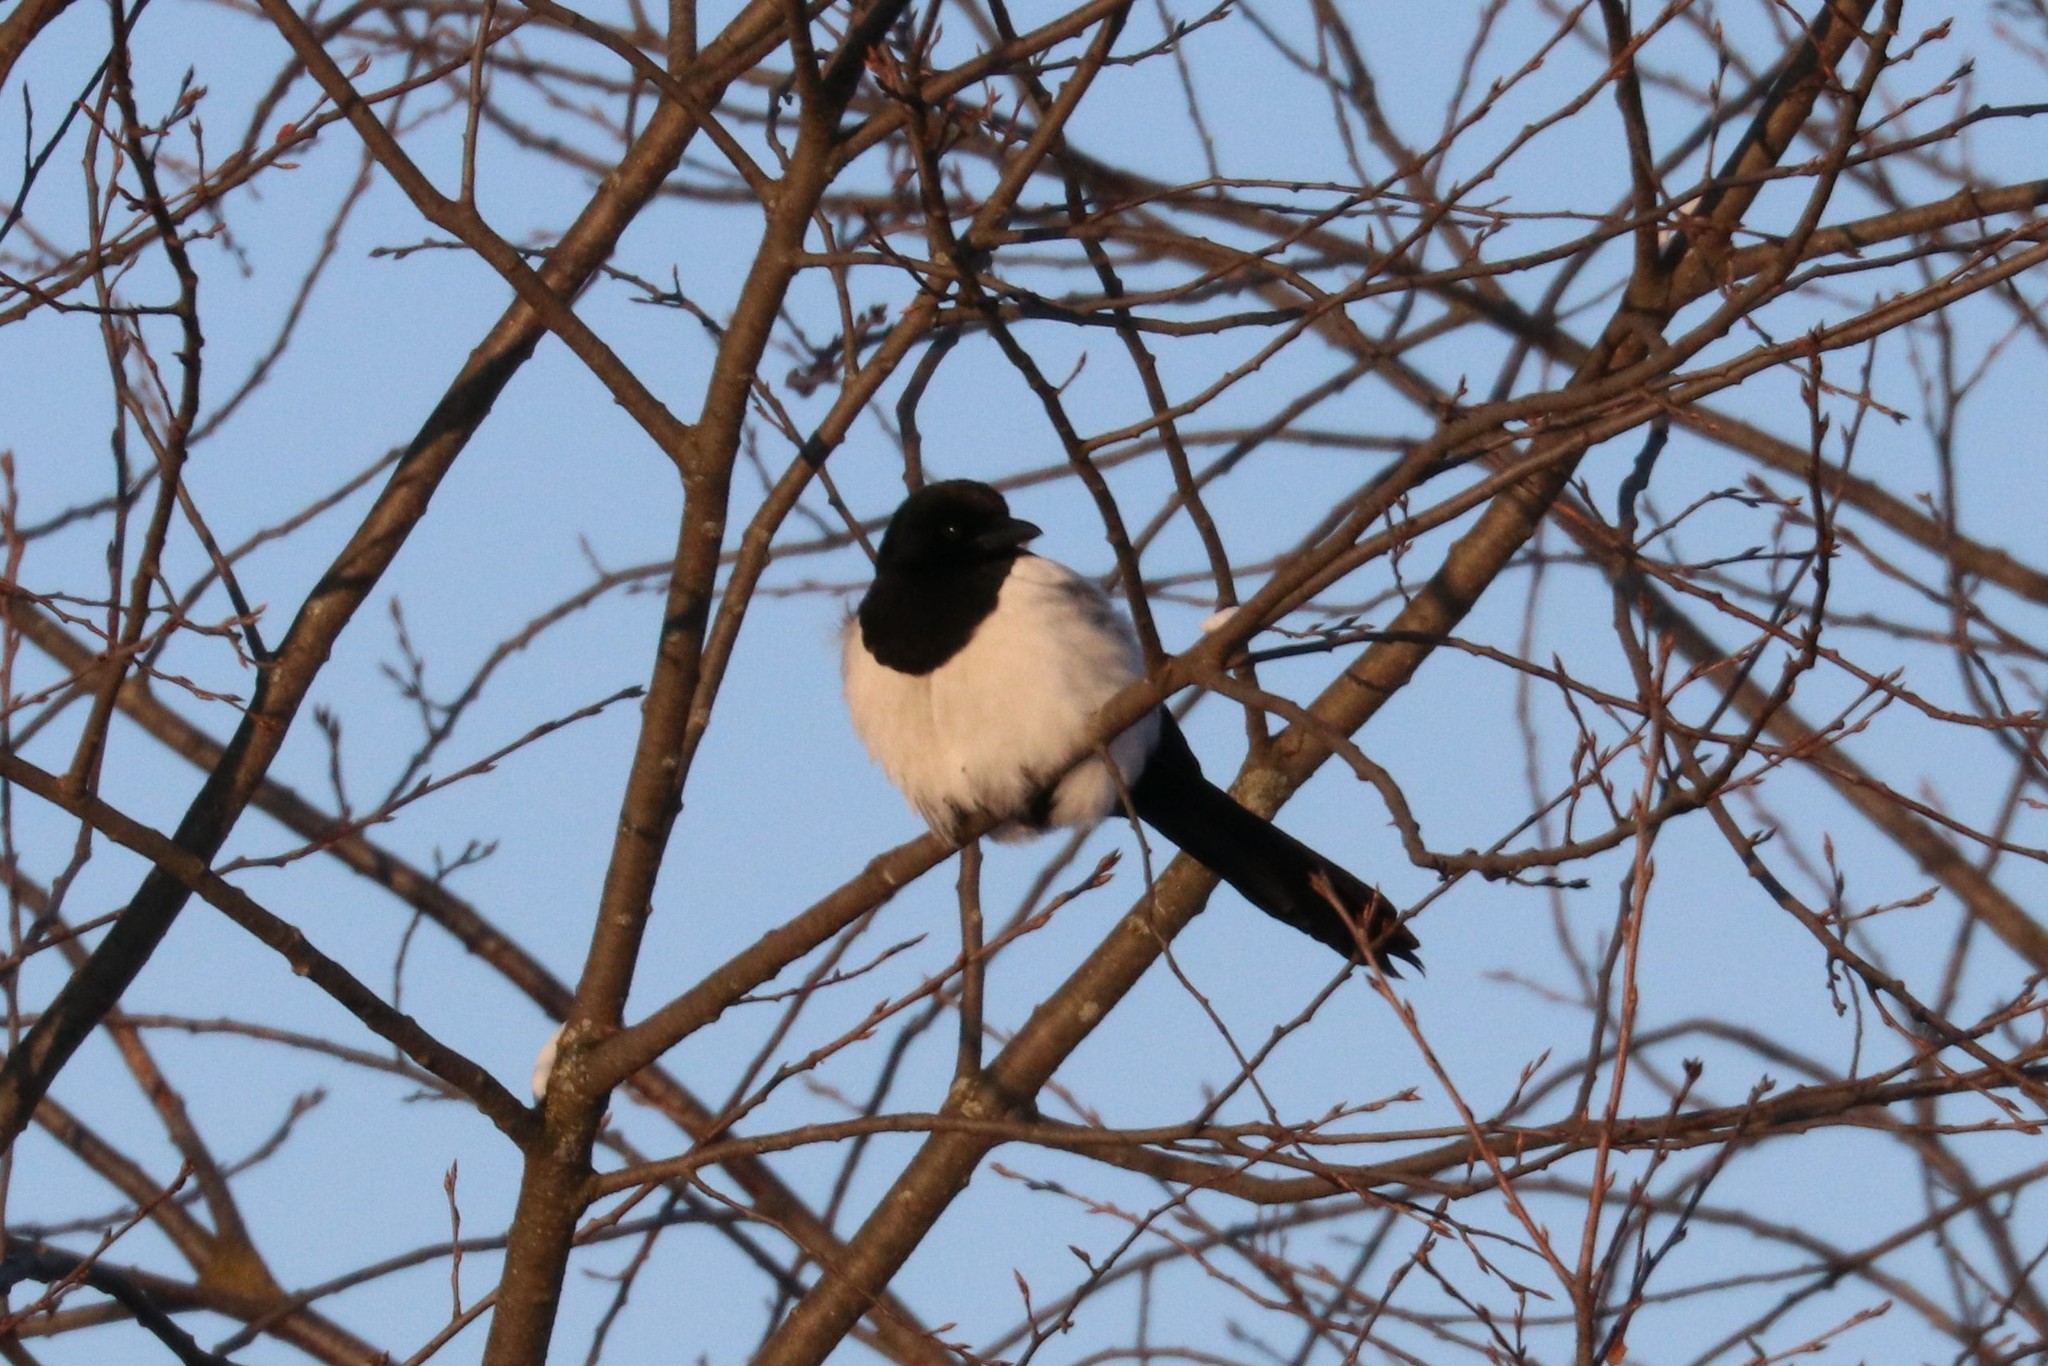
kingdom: Animalia
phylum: Chordata
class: Aves
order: Passeriformes
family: Corvidae
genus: Pica
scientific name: Pica pica
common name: Eurasian magpie
